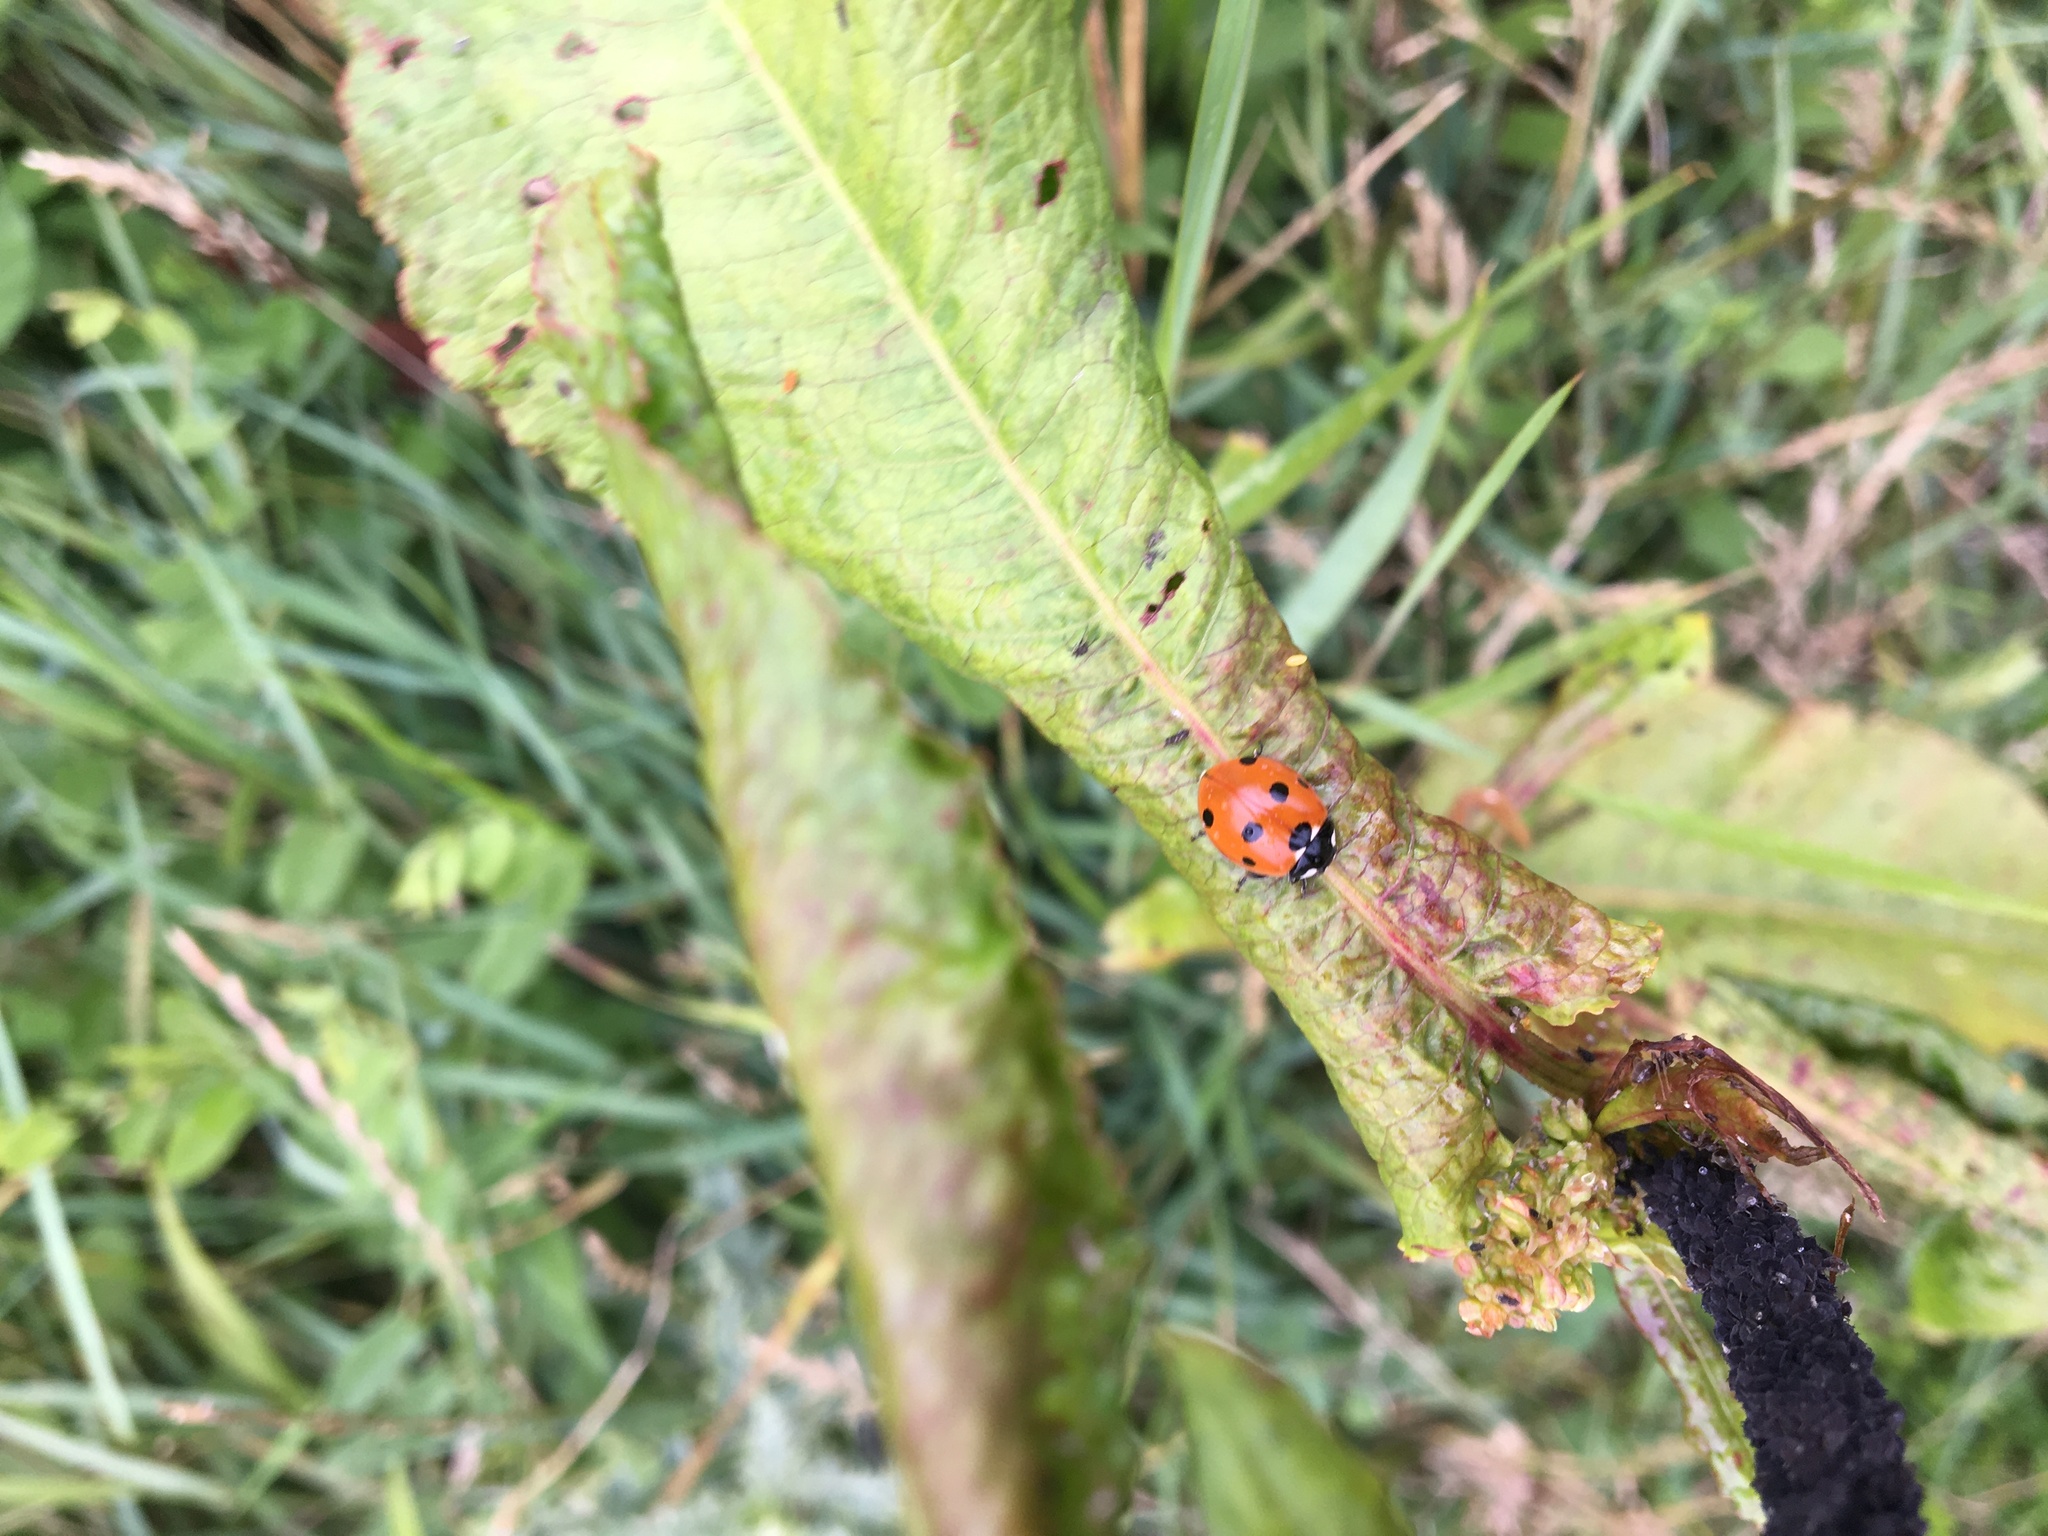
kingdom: Animalia
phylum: Arthropoda
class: Insecta
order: Coleoptera
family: Coccinellidae
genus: Coccinella
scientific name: Coccinella septempunctata
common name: Sevenspotted lady beetle
